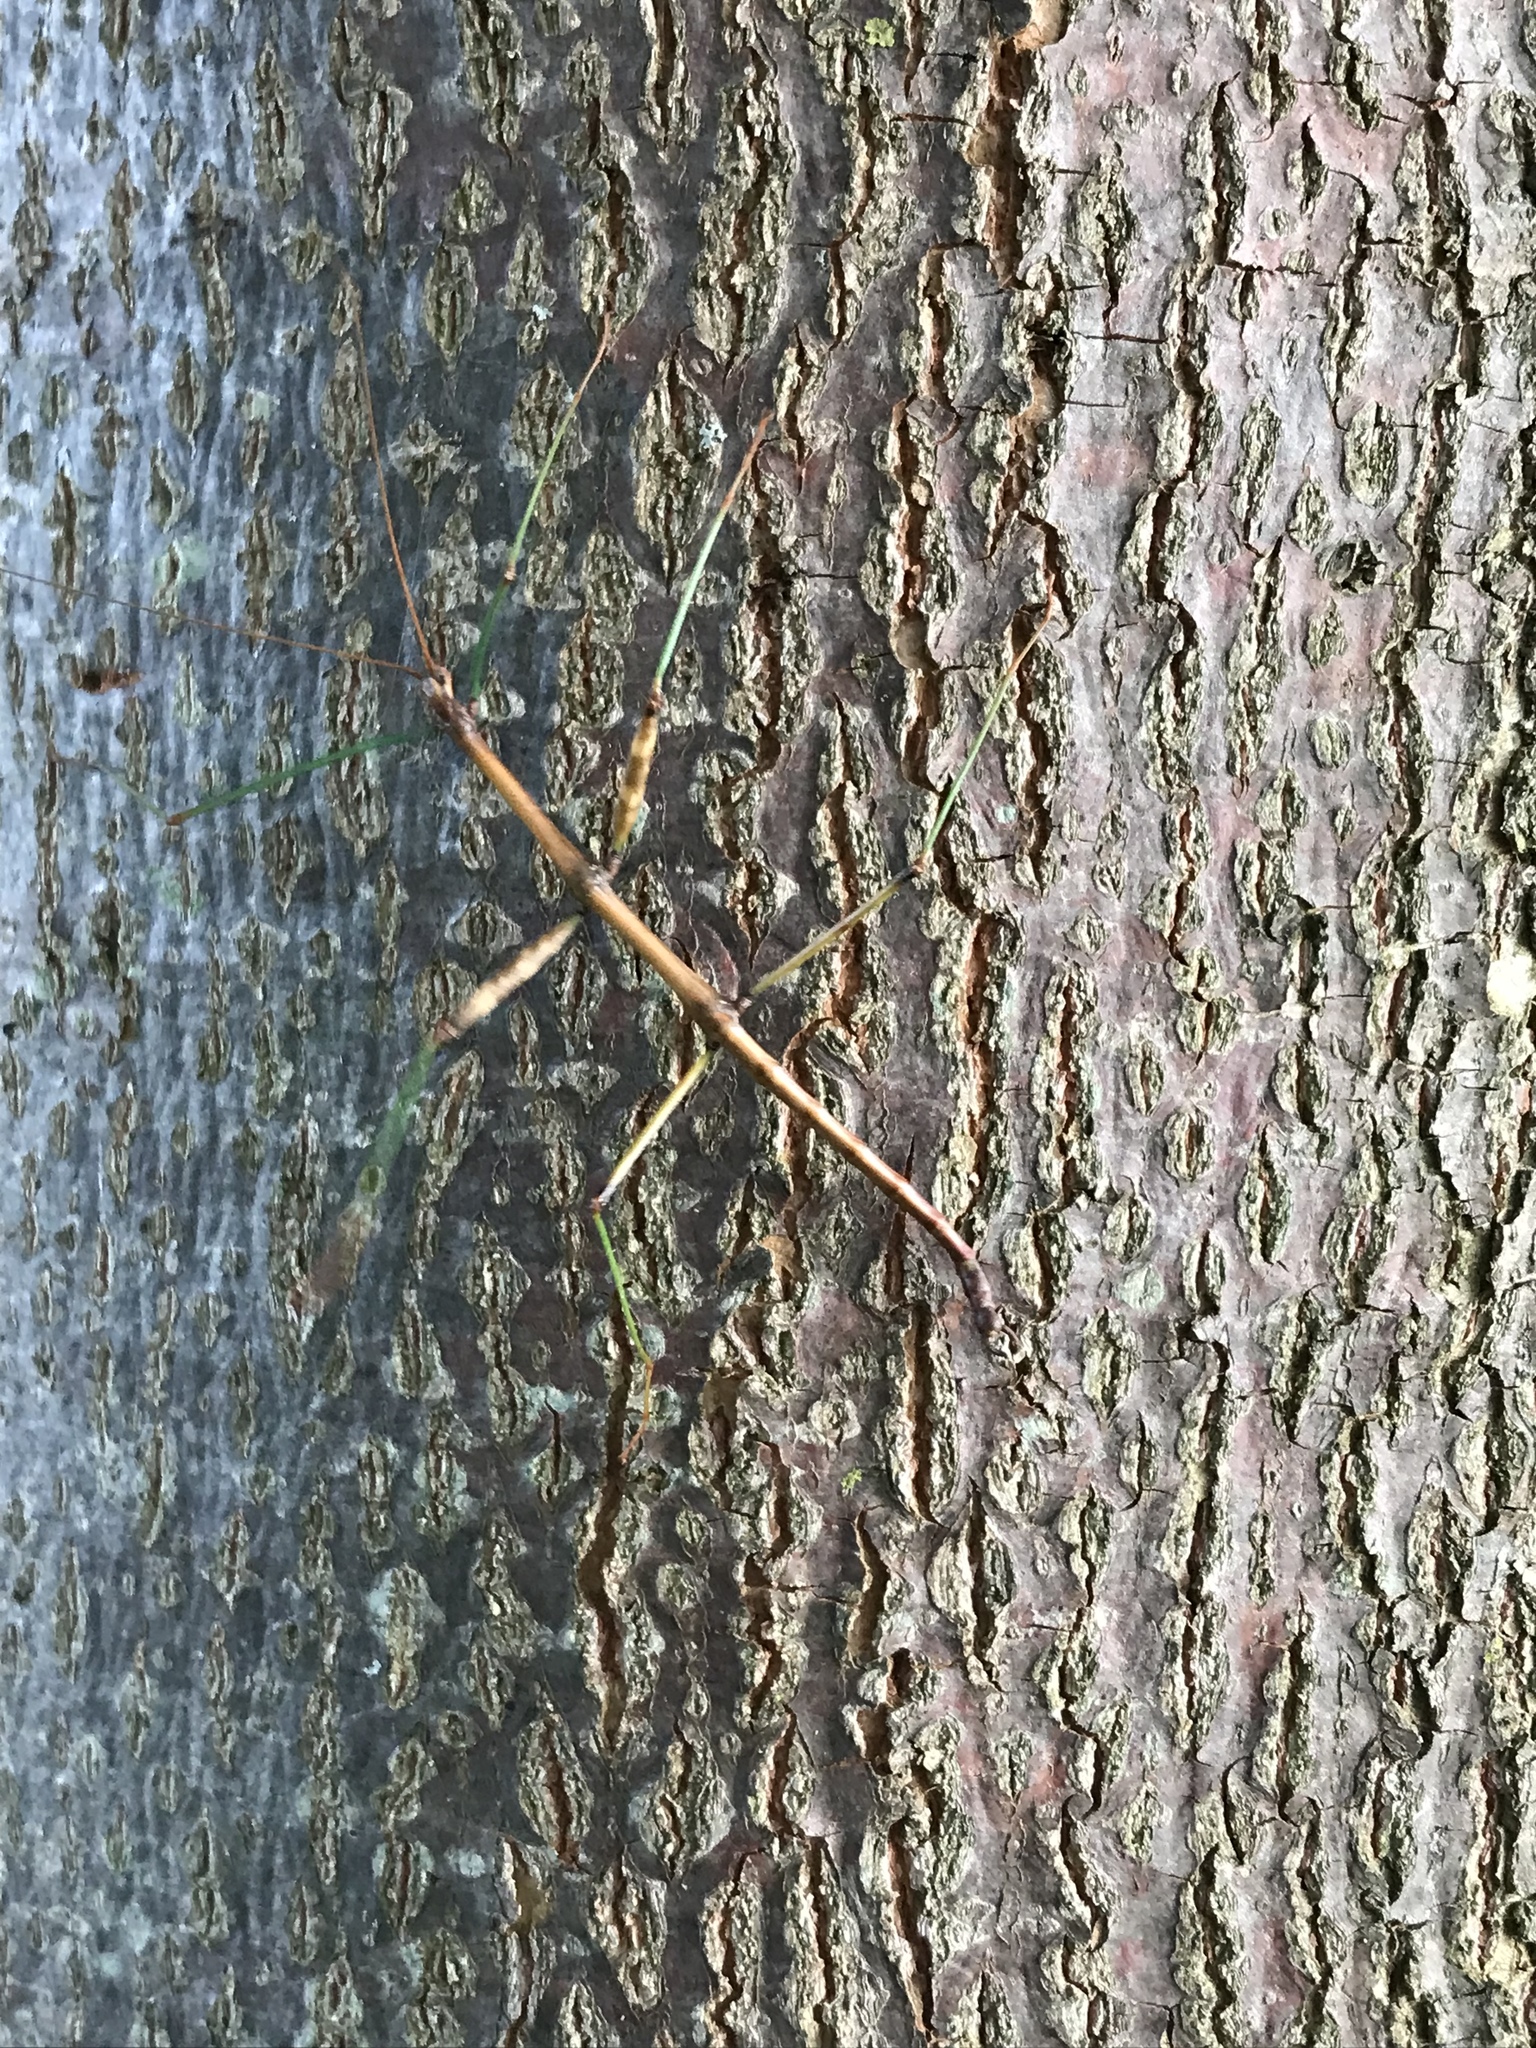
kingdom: Animalia
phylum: Arthropoda
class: Insecta
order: Phasmida
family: Diapheromeridae
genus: Diapheromera
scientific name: Diapheromera femorata
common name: Common american walkingstick
